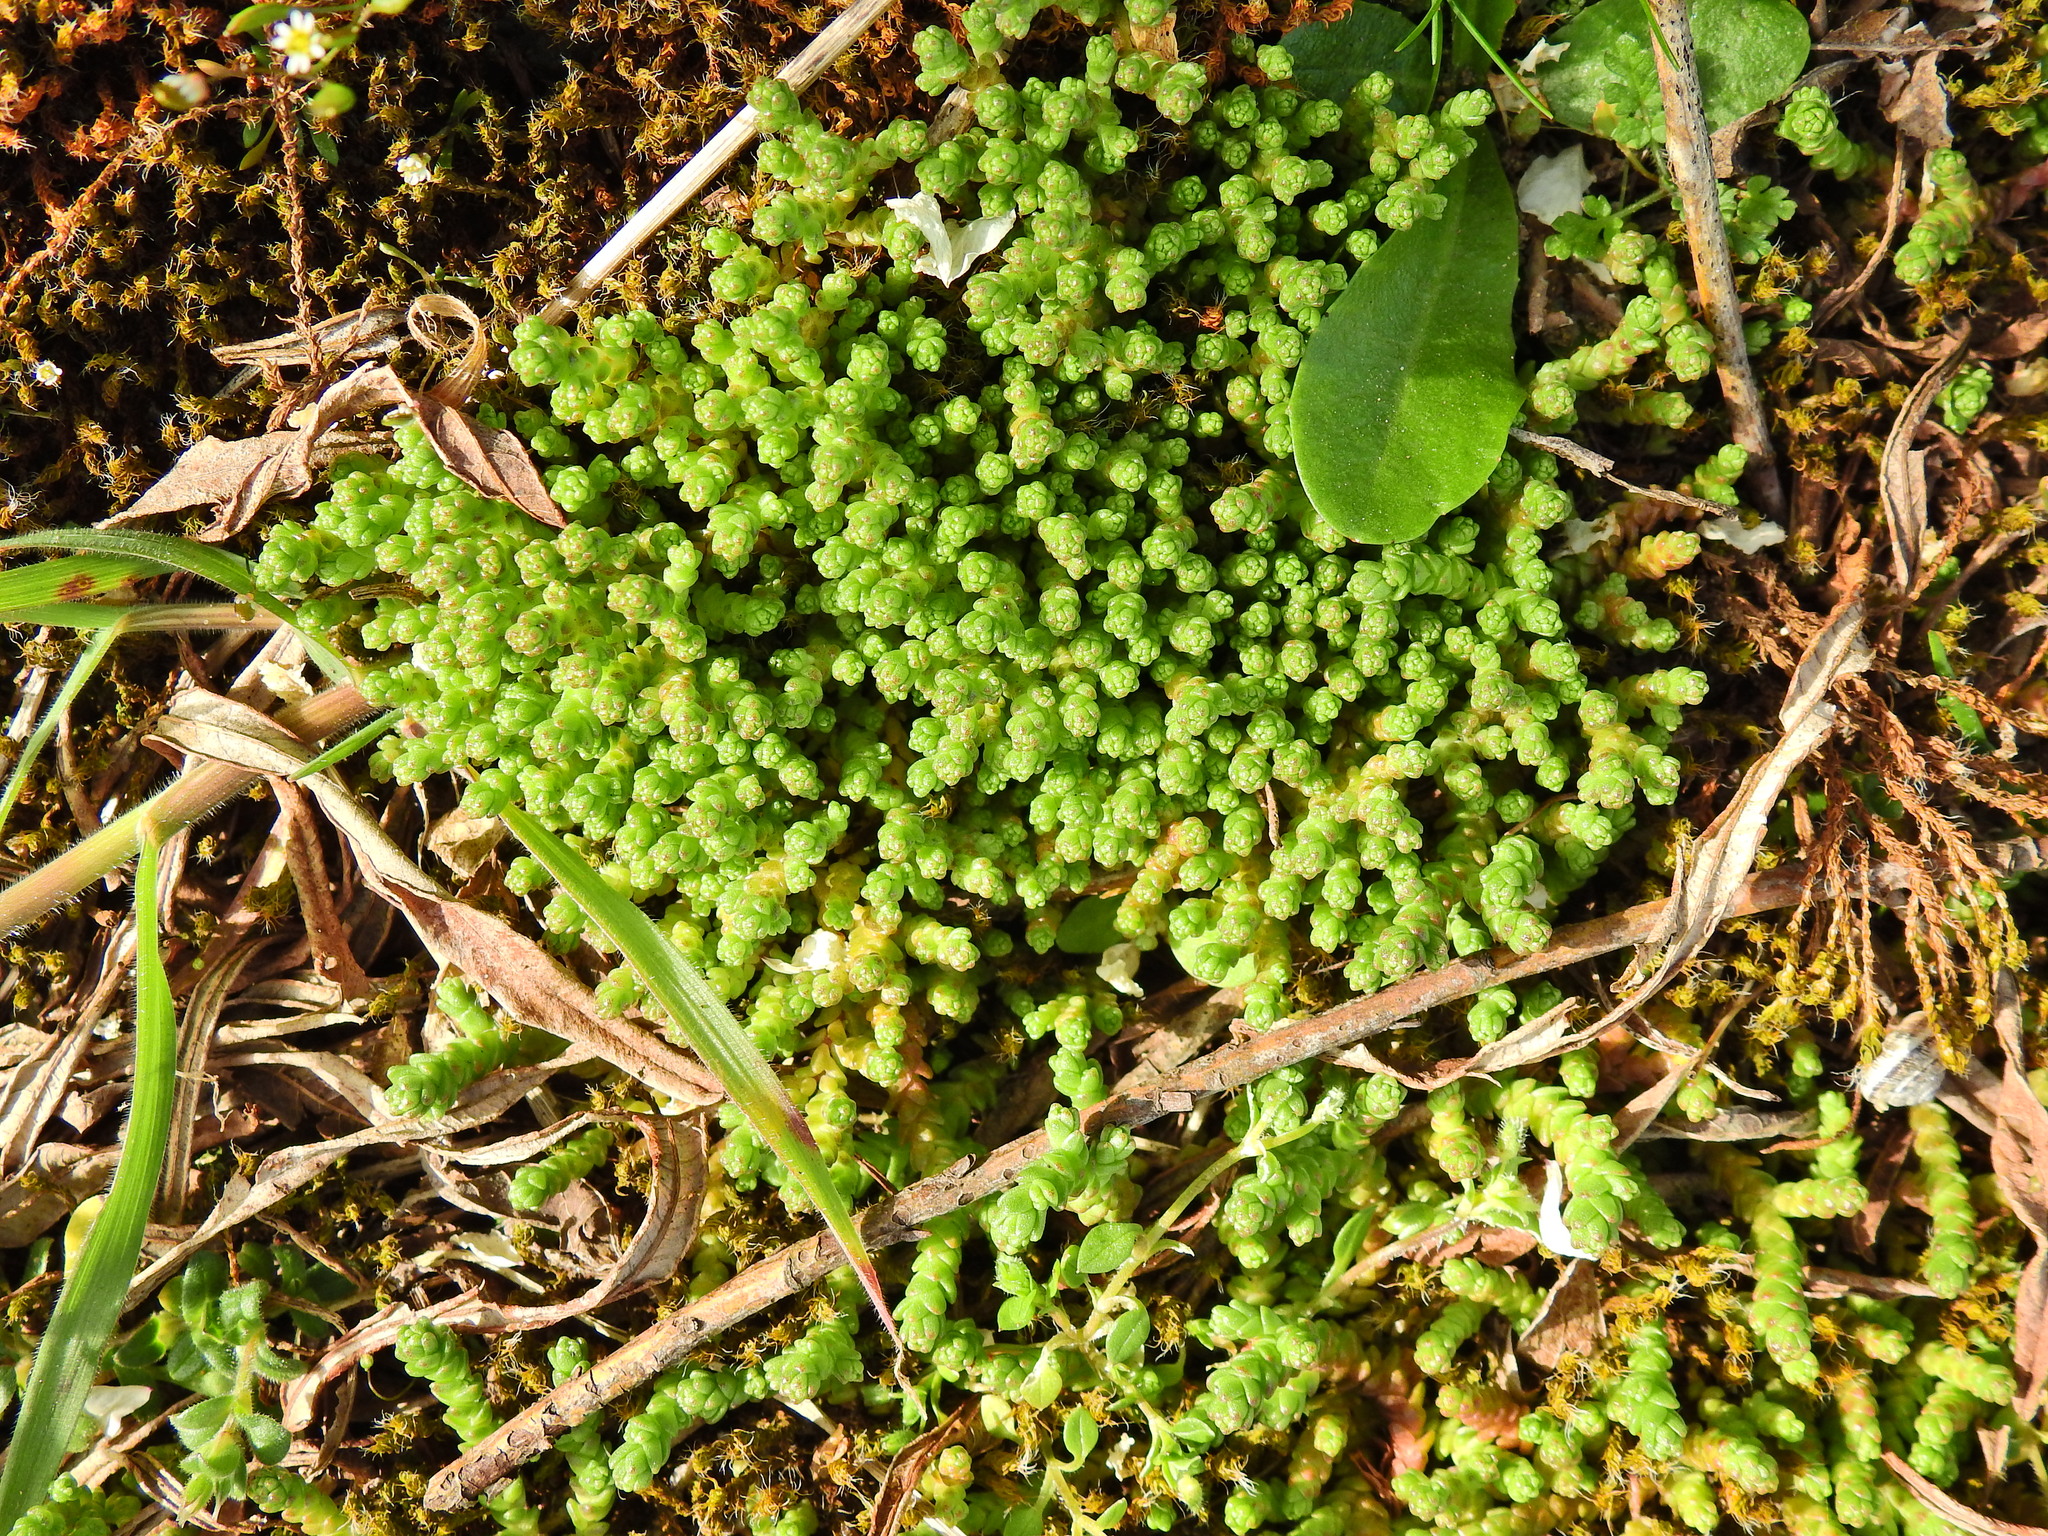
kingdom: Plantae
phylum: Tracheophyta
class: Magnoliopsida
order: Saxifragales
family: Crassulaceae
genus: Sedum
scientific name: Sedum acre
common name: Biting stonecrop
